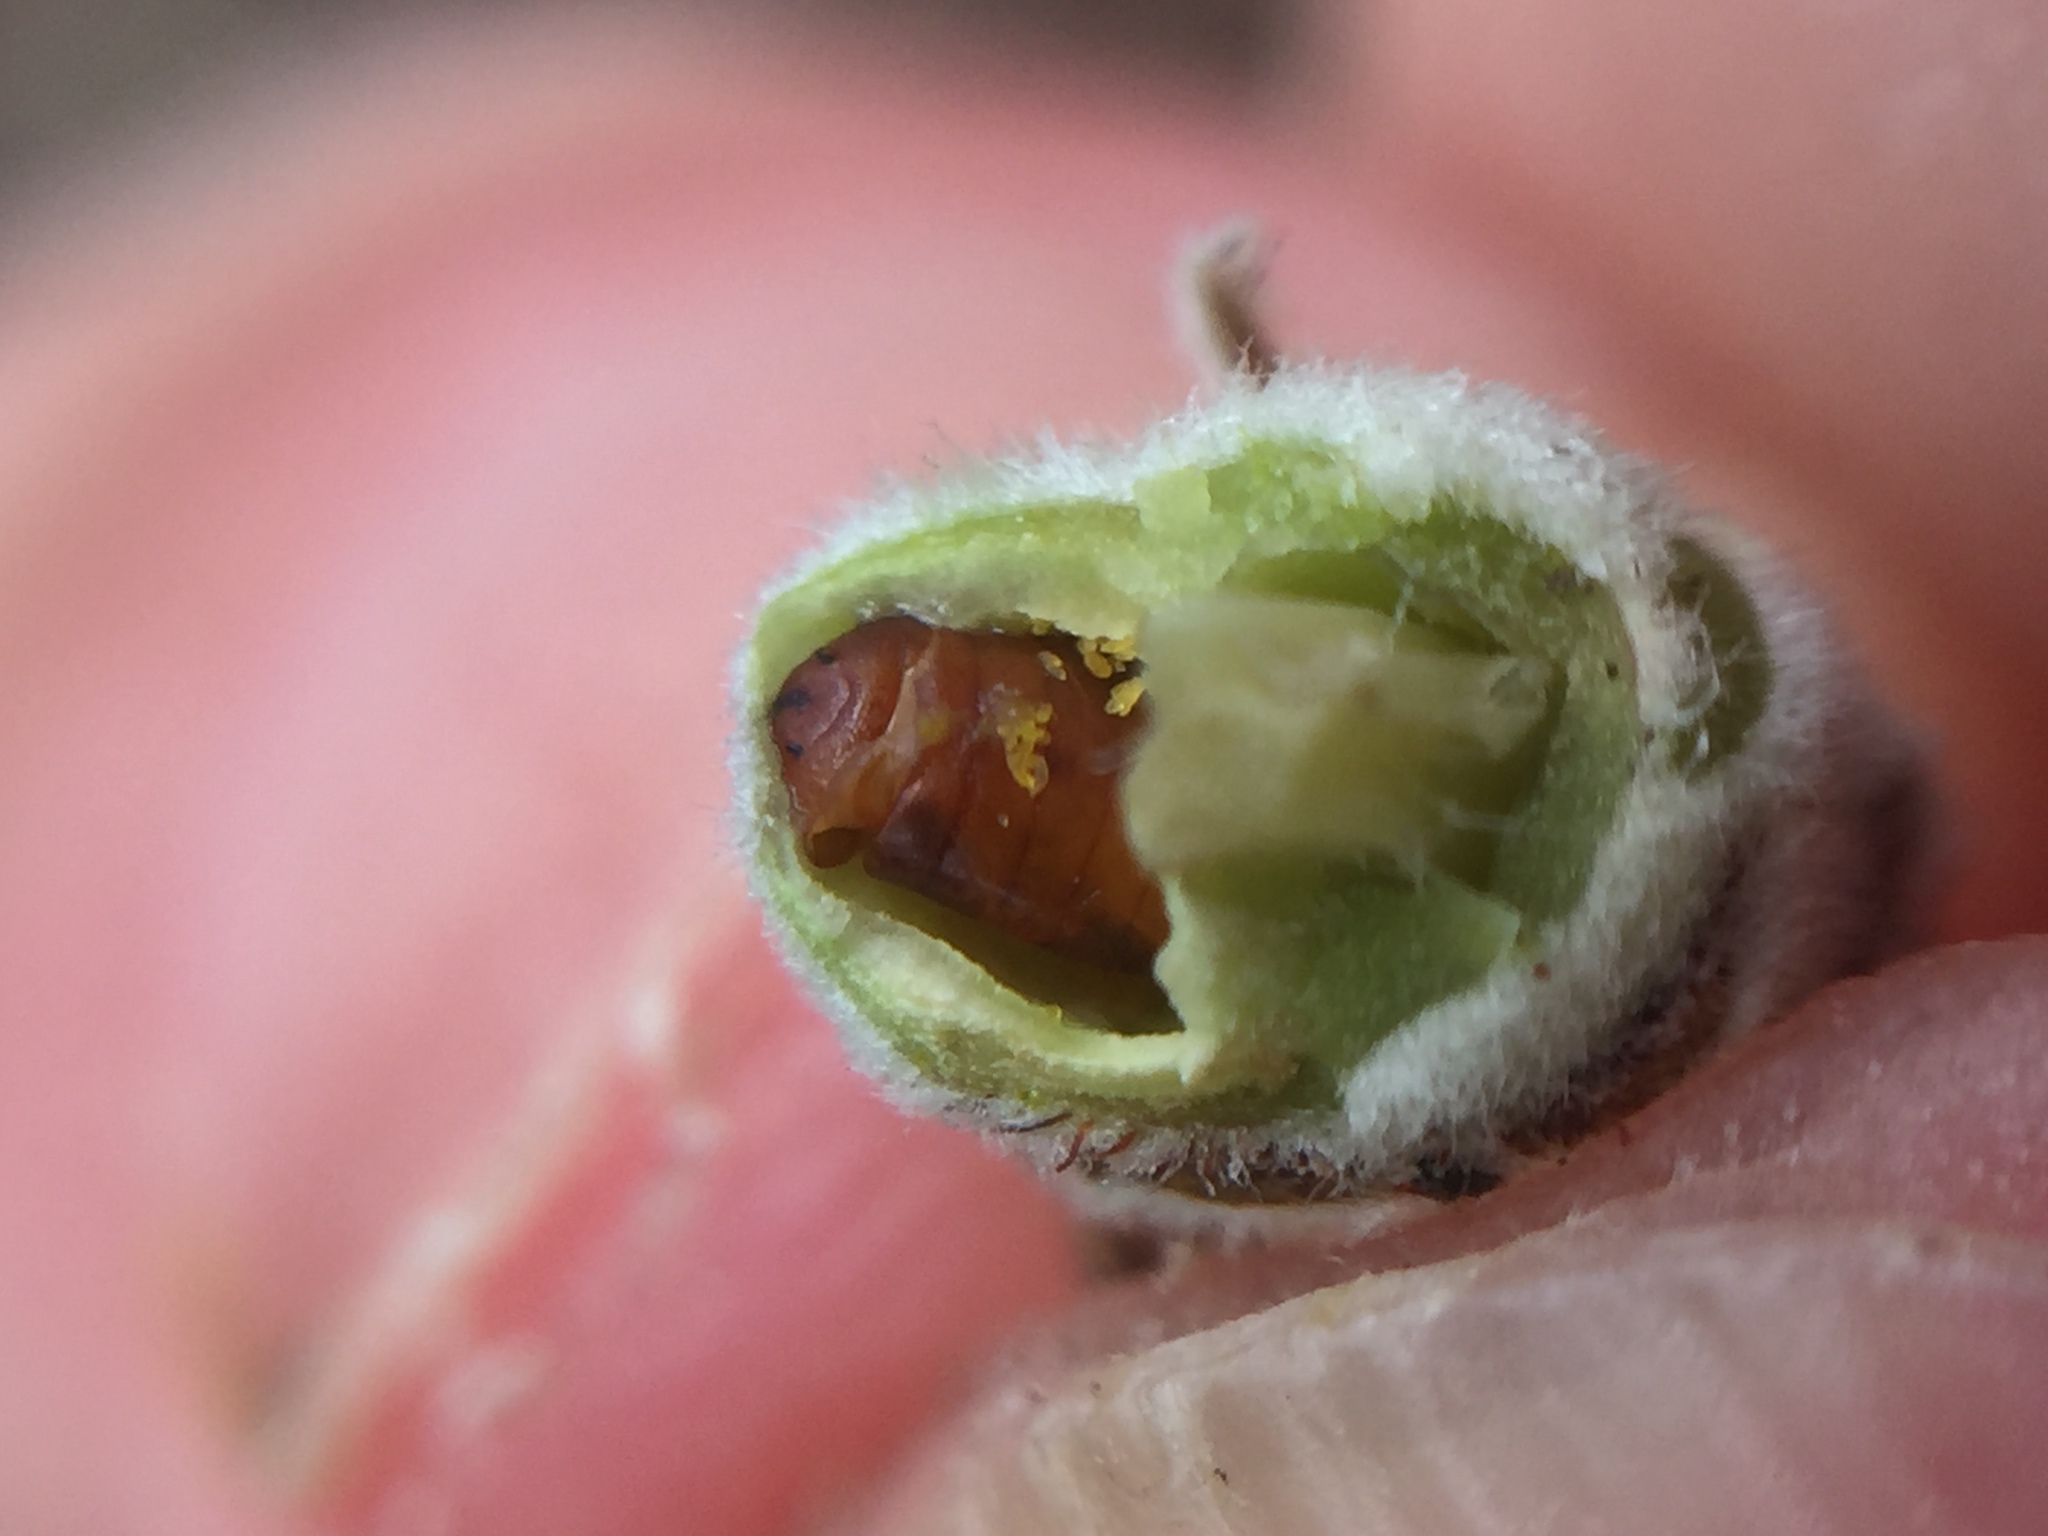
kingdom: Animalia
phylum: Arthropoda
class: Insecta
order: Diptera
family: Fergusoninidae
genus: Fergusonina
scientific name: Fergusonina metrosiderosi
